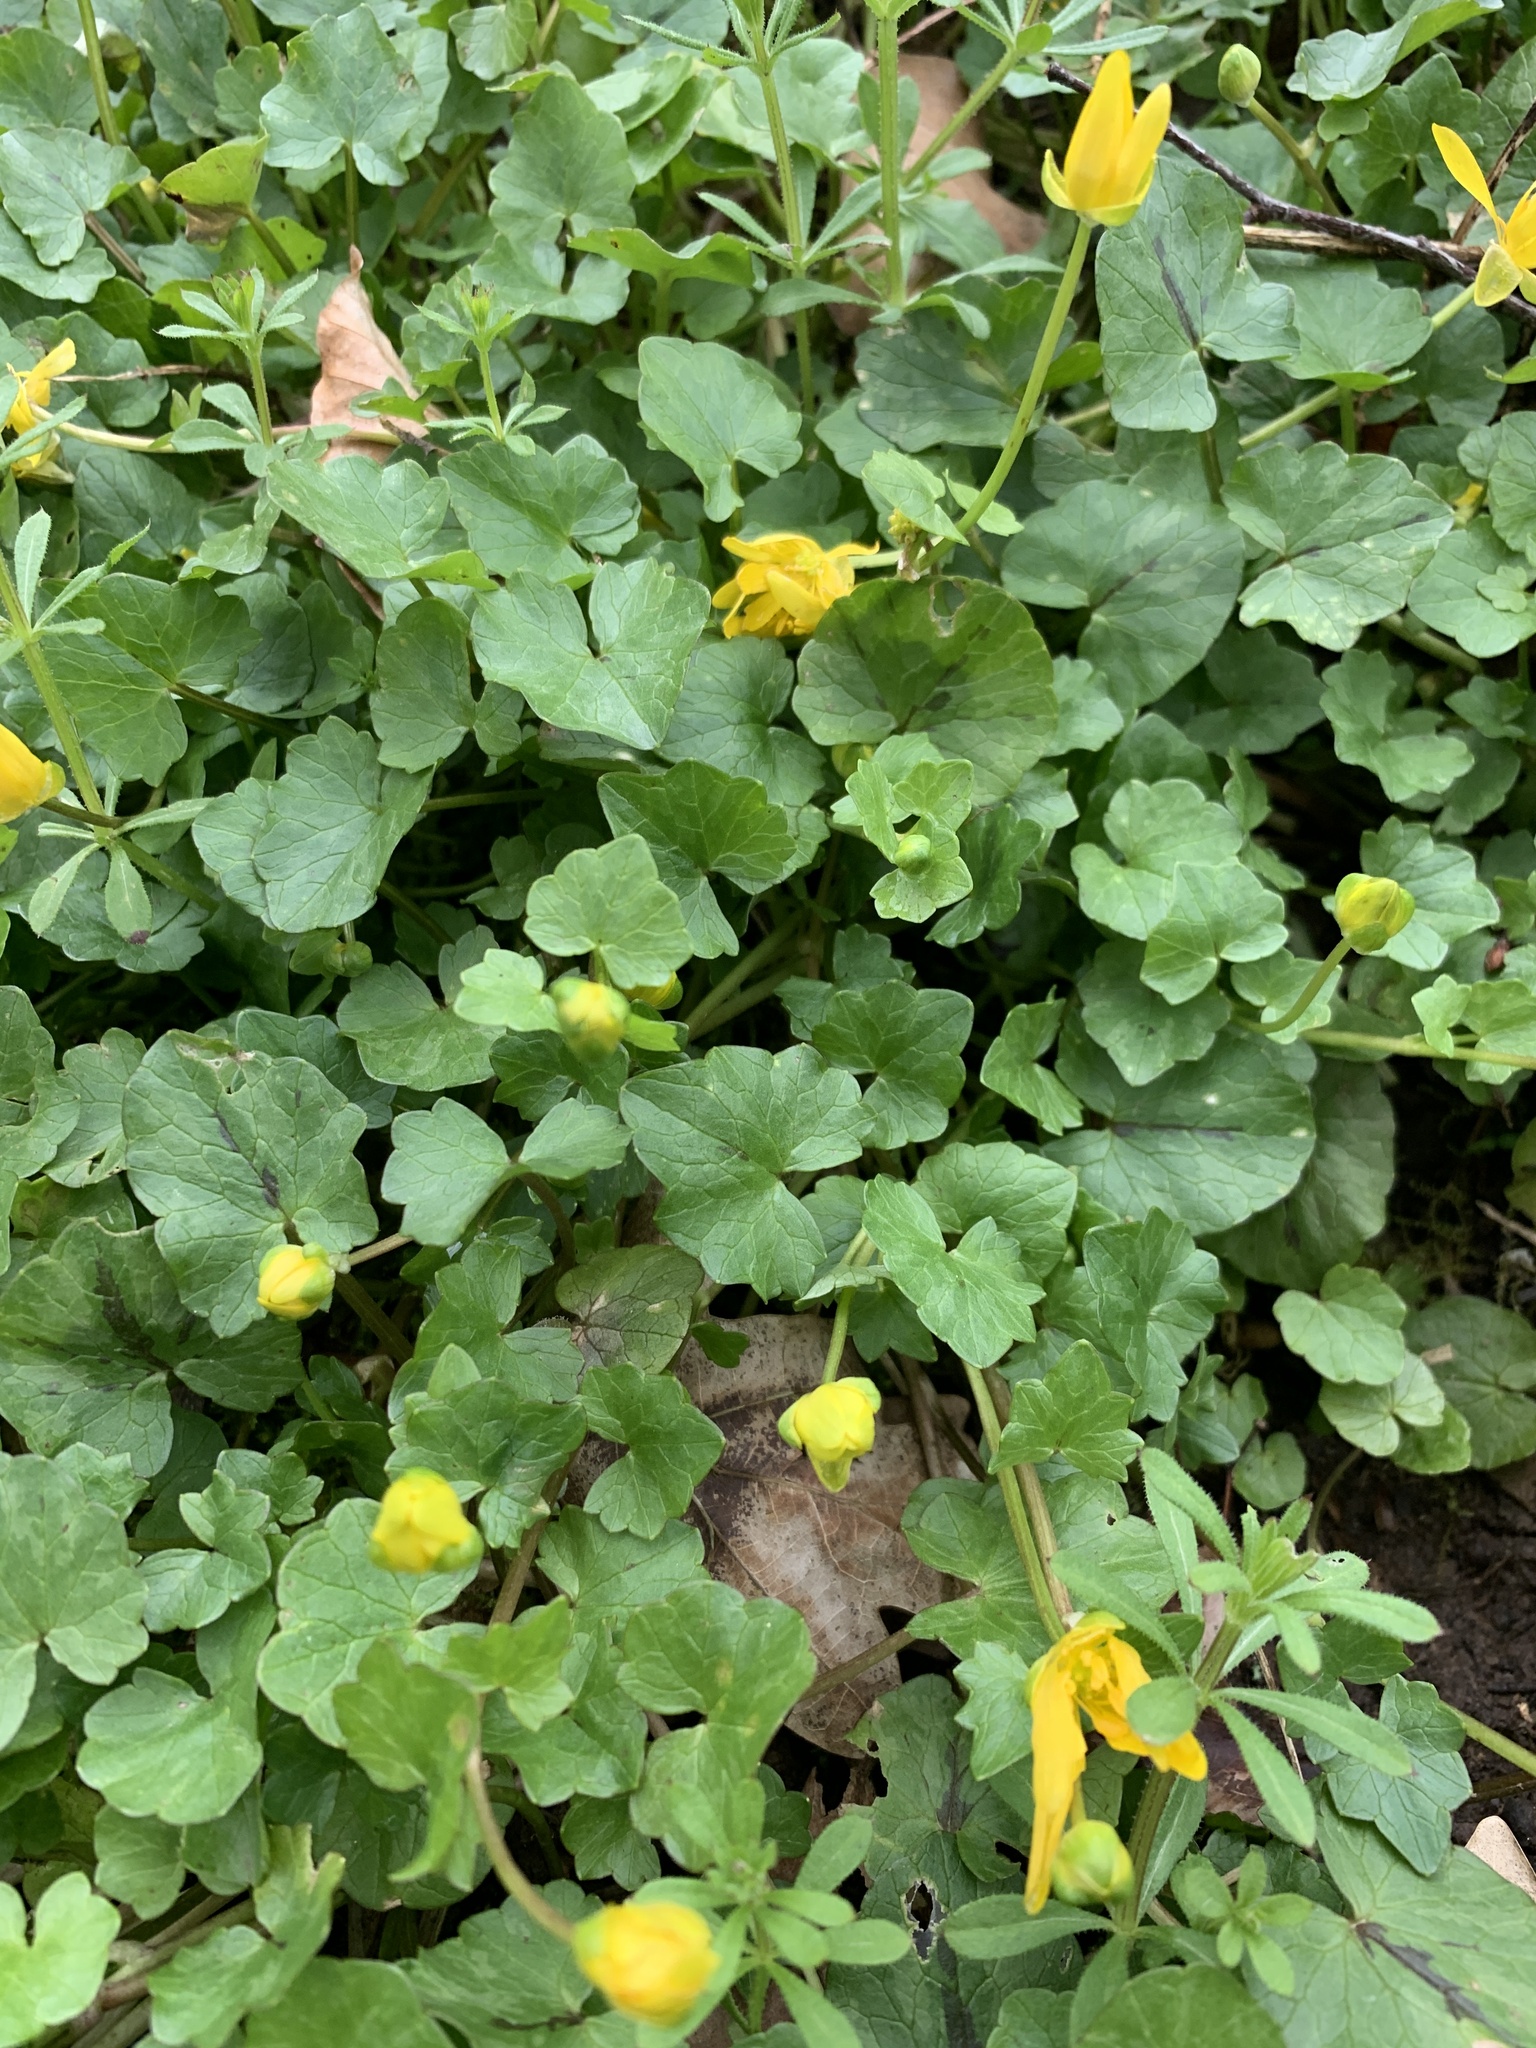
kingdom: Plantae
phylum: Tracheophyta
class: Magnoliopsida
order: Ranunculales
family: Ranunculaceae
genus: Ficaria
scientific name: Ficaria verna
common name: Lesser celandine
